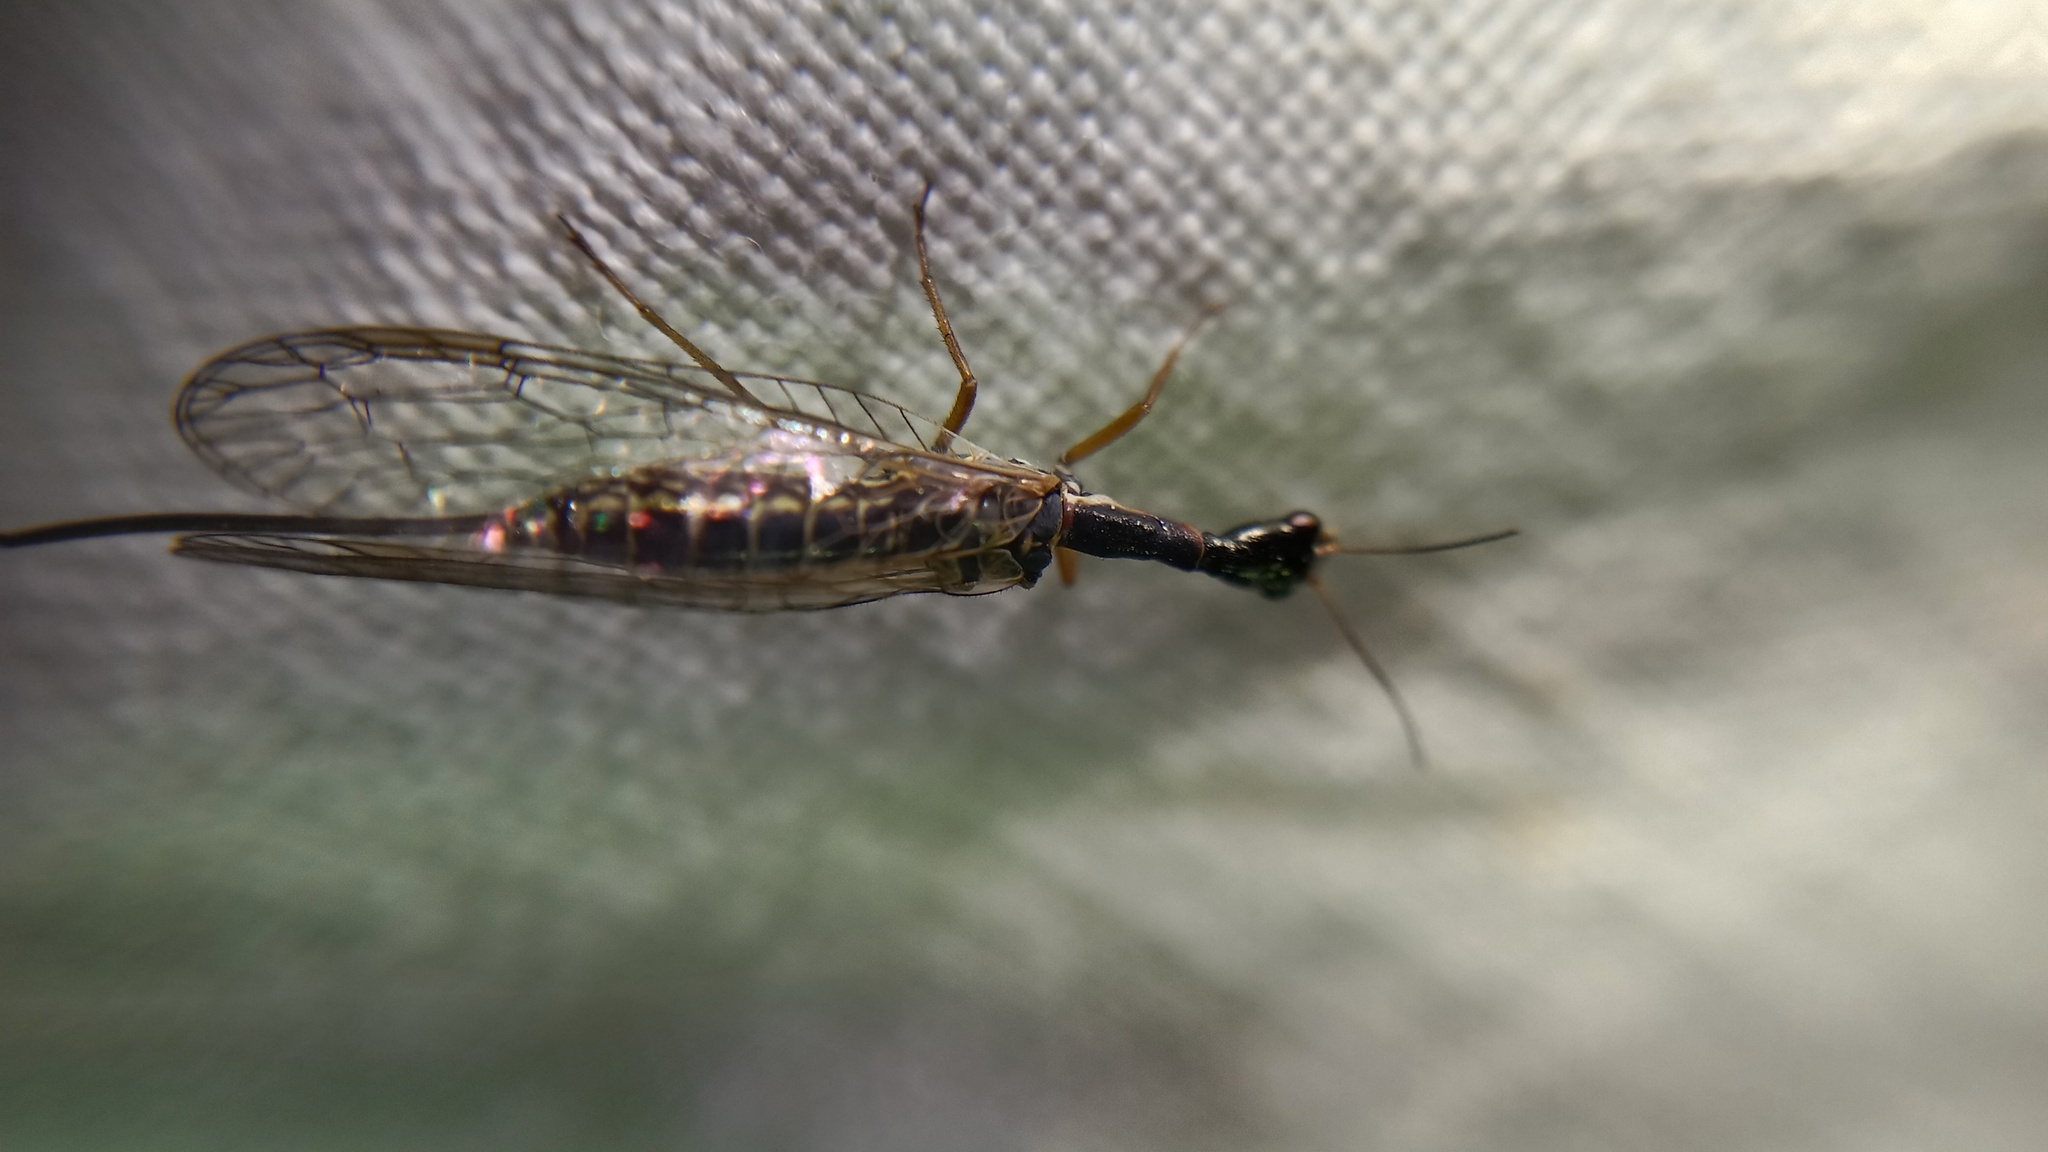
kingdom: Animalia
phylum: Arthropoda
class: Insecta
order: Raphidioptera
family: Raphidiidae
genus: Xanthostigma
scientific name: Xanthostigma xanthostigma
